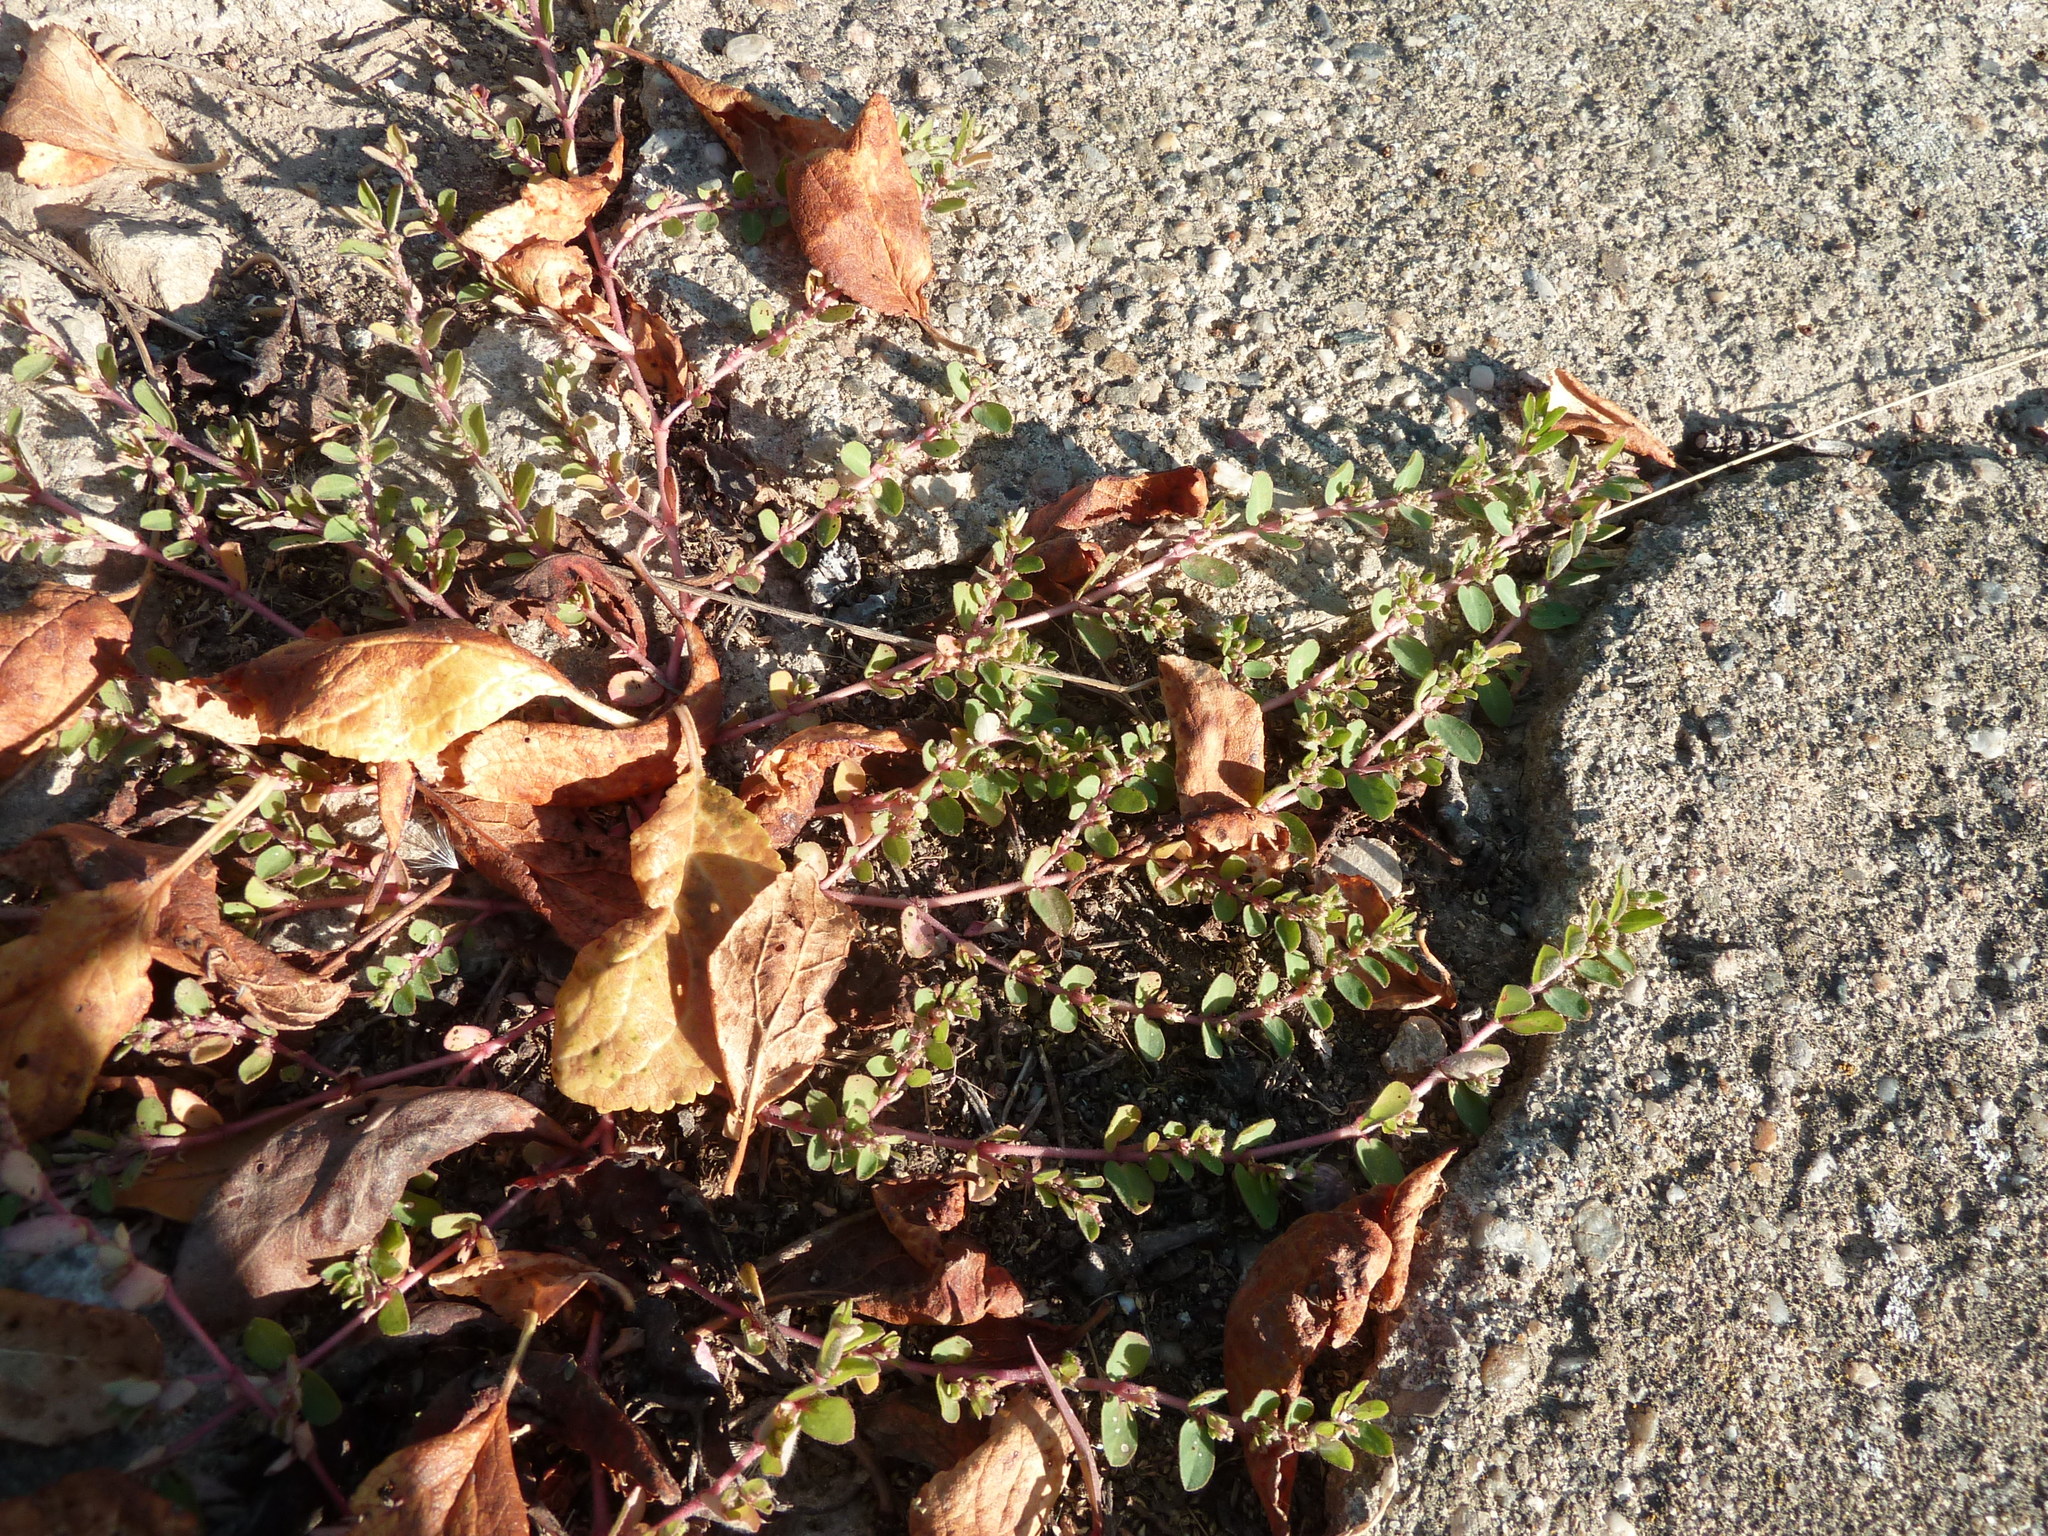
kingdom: Plantae
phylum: Tracheophyta
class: Magnoliopsida
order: Malpighiales
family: Euphorbiaceae
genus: Euphorbia
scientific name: Euphorbia prostrata
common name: Prostrate sandmat
